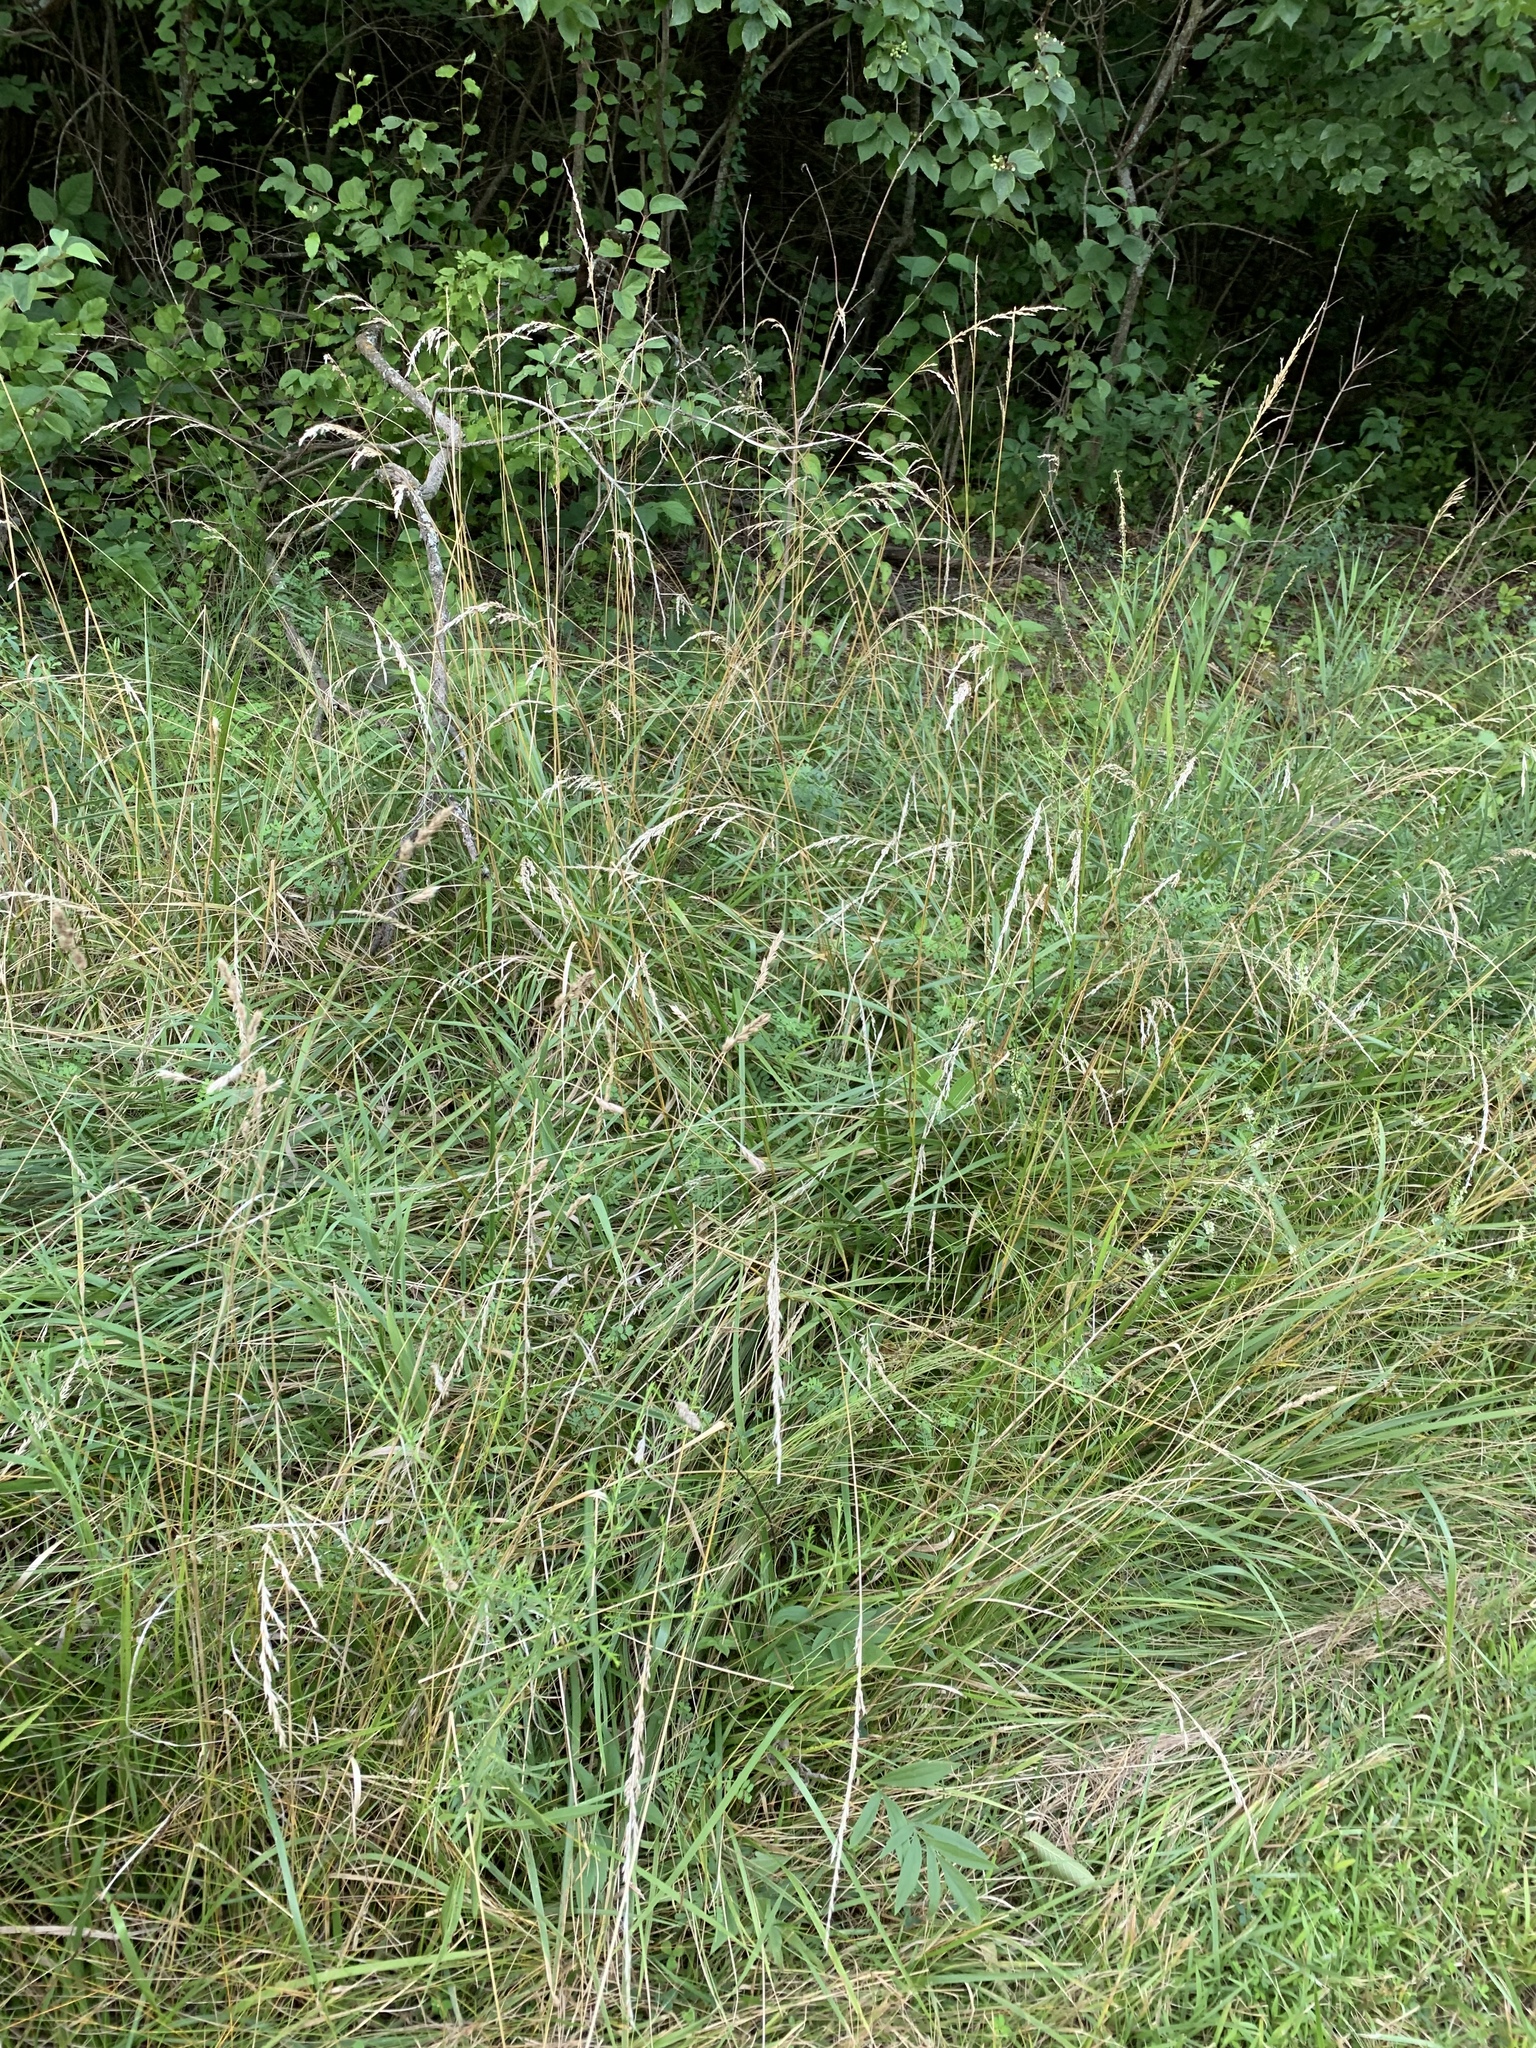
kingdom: Plantae
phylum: Tracheophyta
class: Liliopsida
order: Poales
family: Poaceae
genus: Lolium
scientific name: Lolium arundinaceum
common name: Reed fescue
